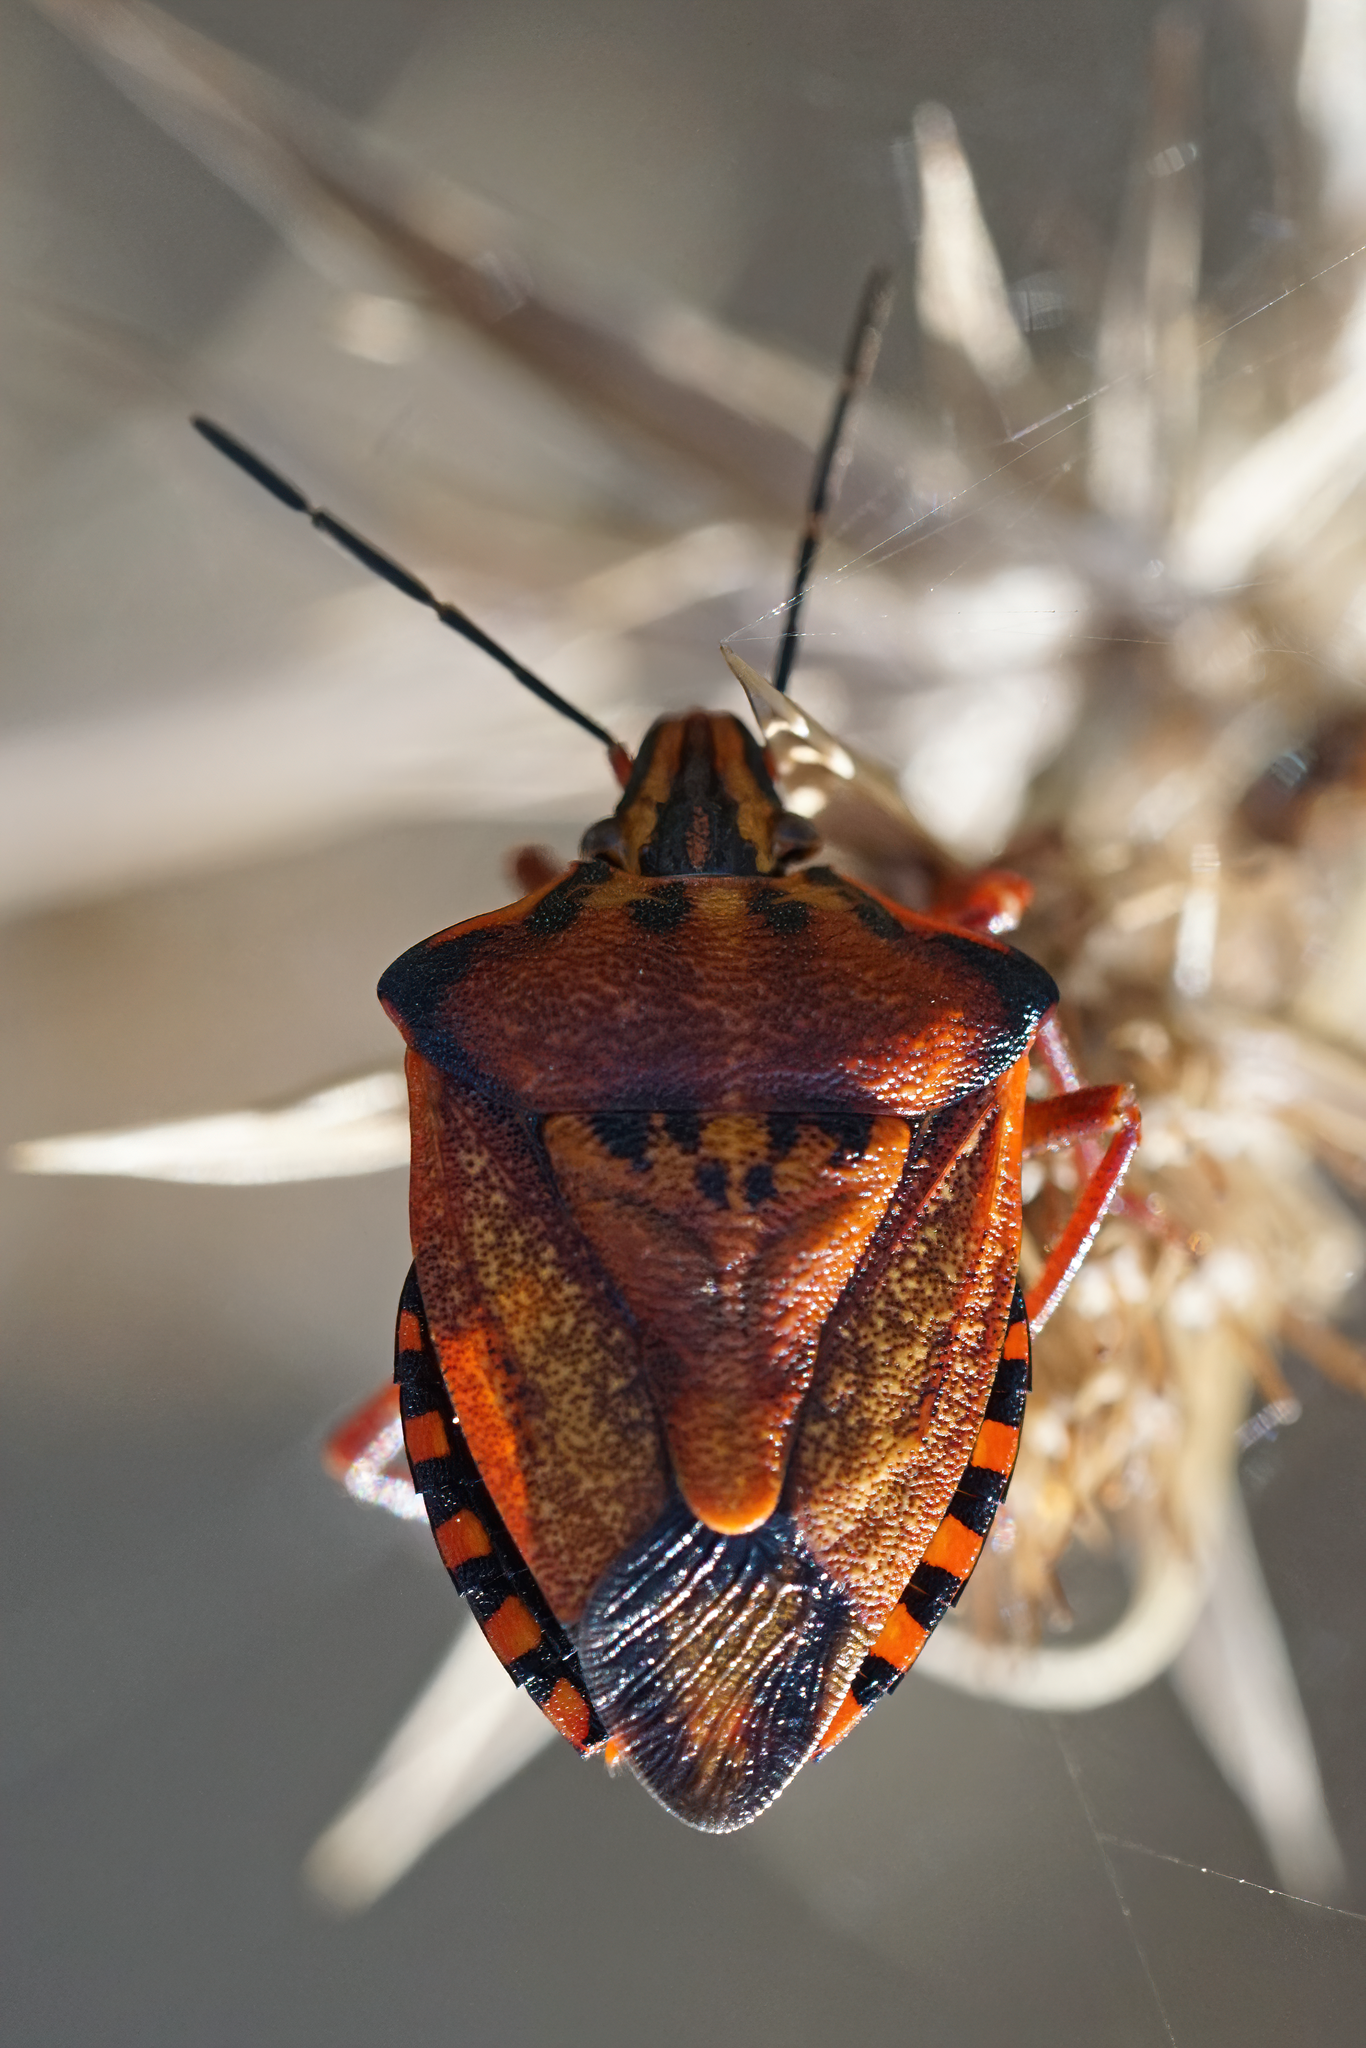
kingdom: Animalia
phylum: Arthropoda
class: Insecta
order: Hemiptera
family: Pentatomidae
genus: Carpocoris
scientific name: Carpocoris mediterraneus
